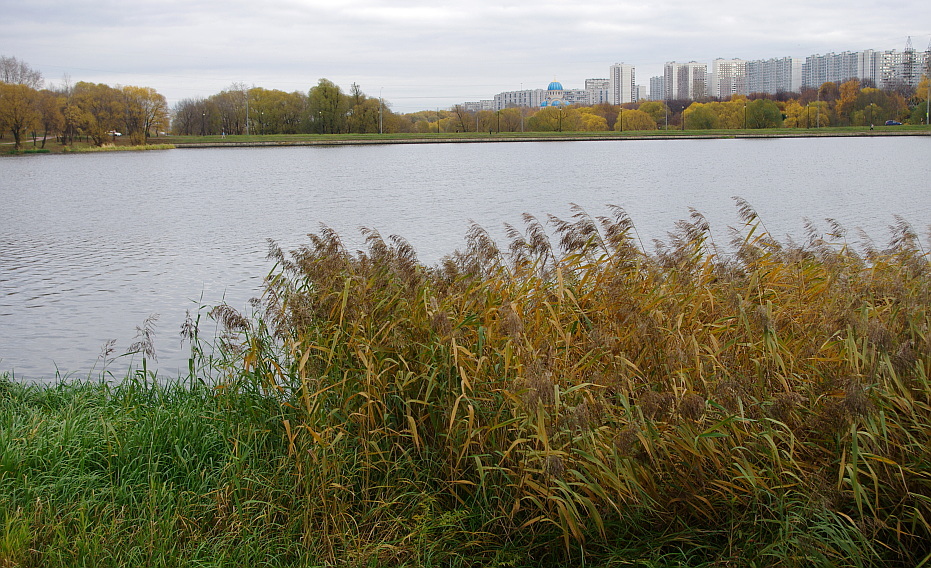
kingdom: Plantae
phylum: Tracheophyta
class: Liliopsida
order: Poales
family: Poaceae
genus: Phragmites
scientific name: Phragmites australis
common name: Common reed
